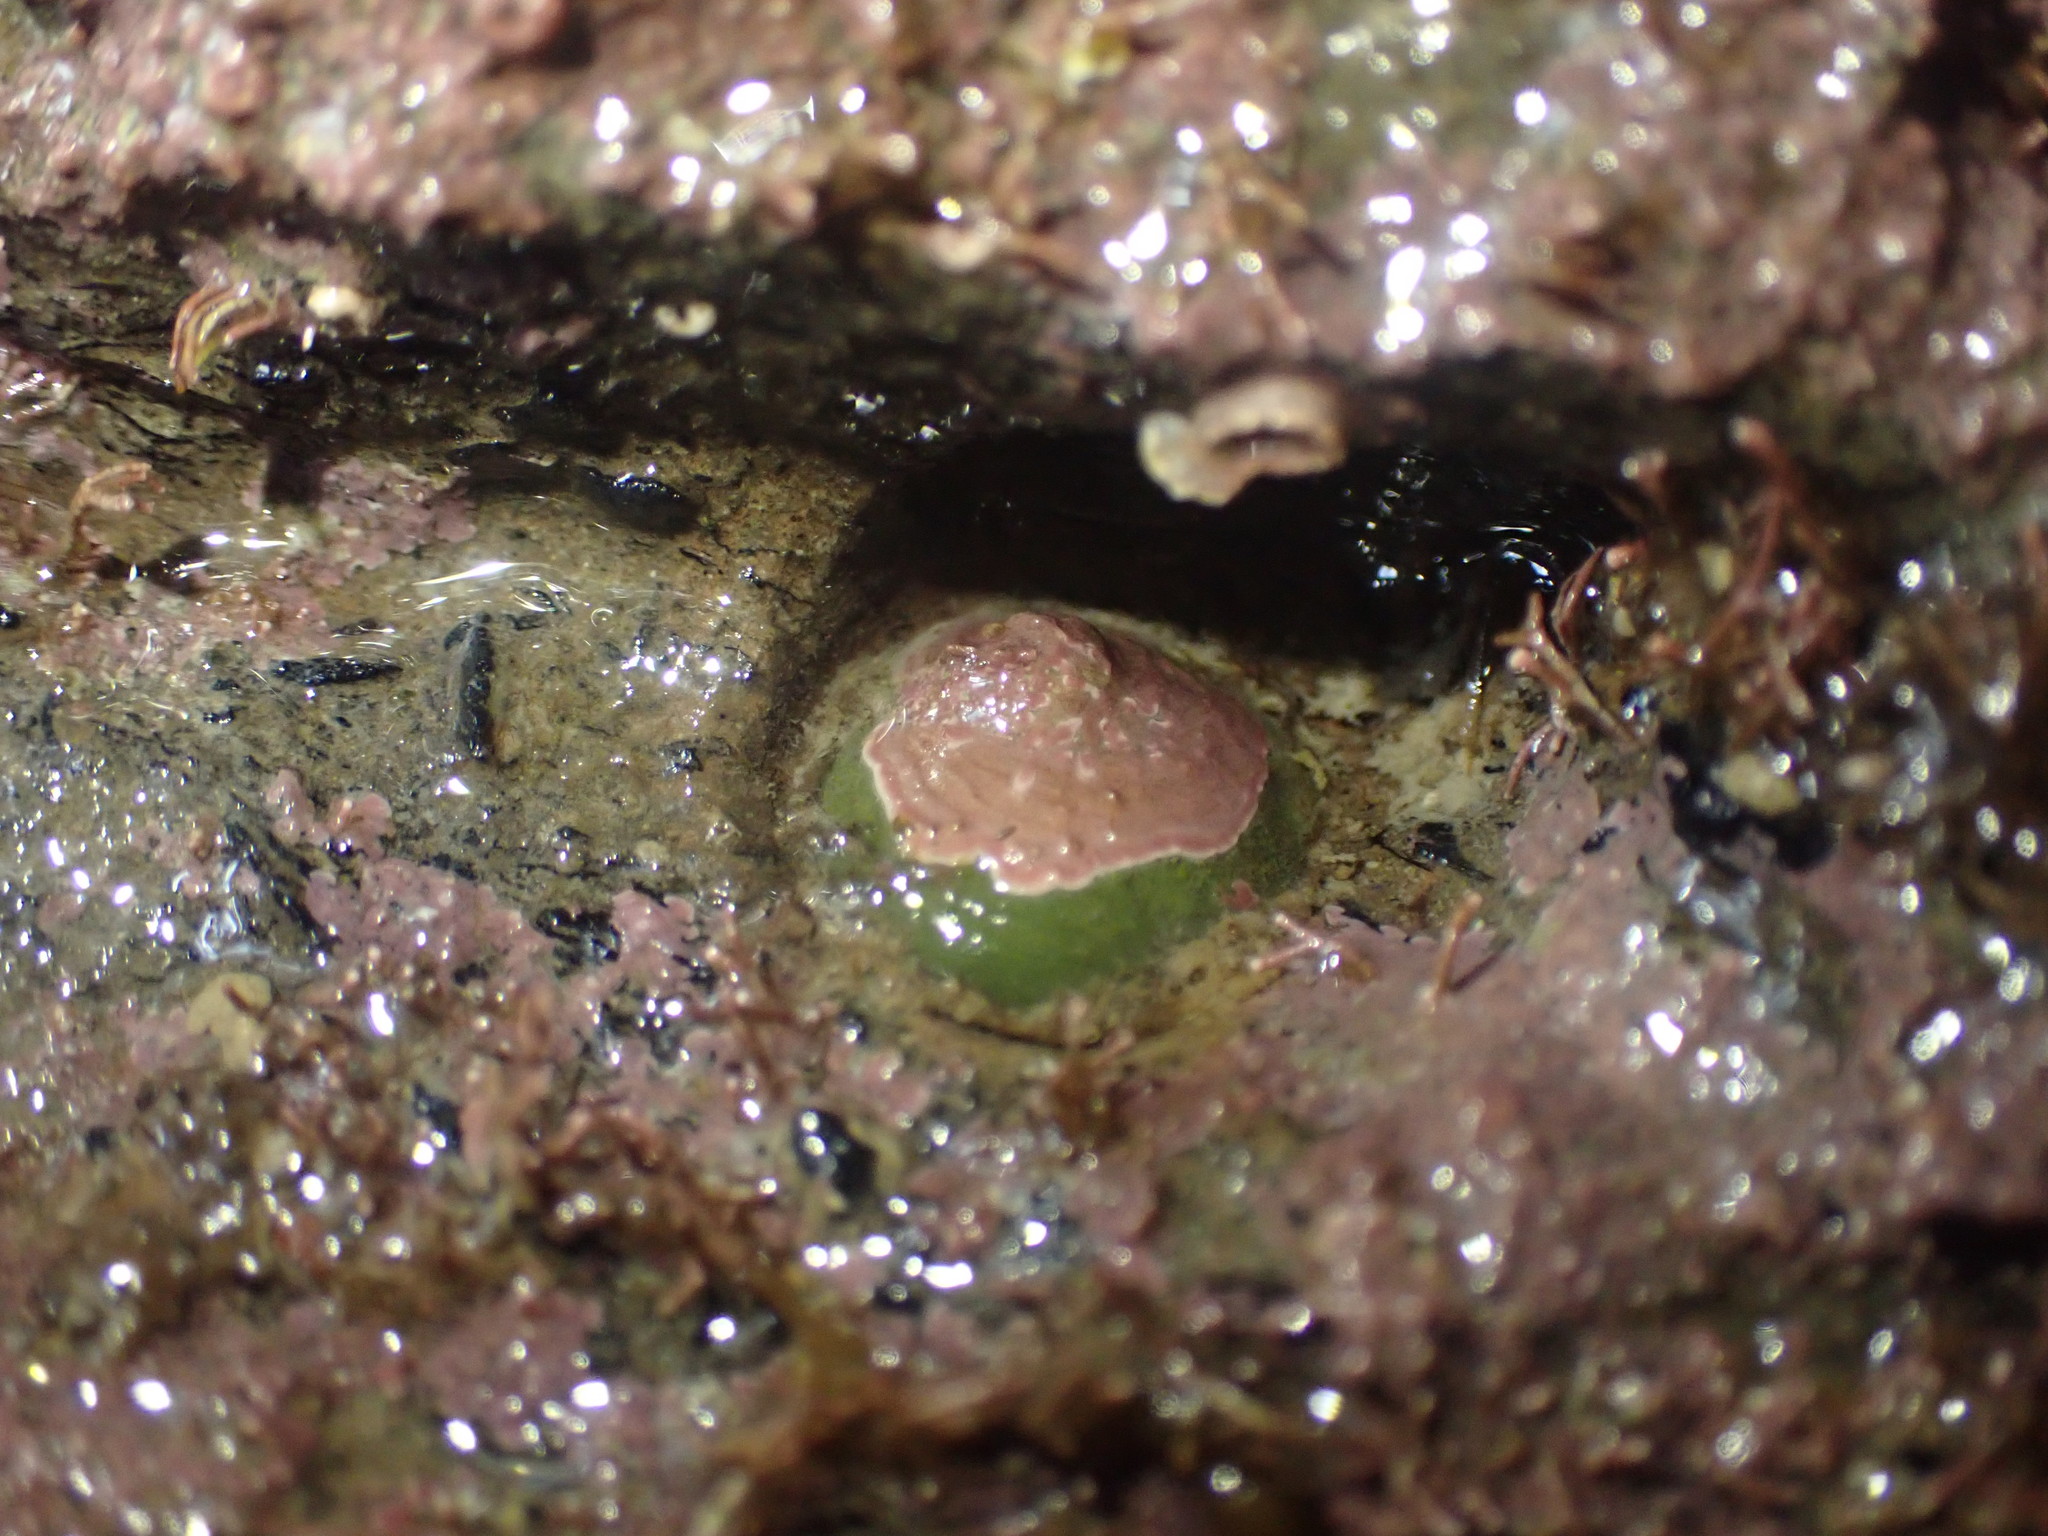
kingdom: Animalia
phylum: Mollusca
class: Gastropoda
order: Littorinimorpha
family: Calyptraeidae
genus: Sigapatella
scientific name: Sigapatella novaezelandiae
